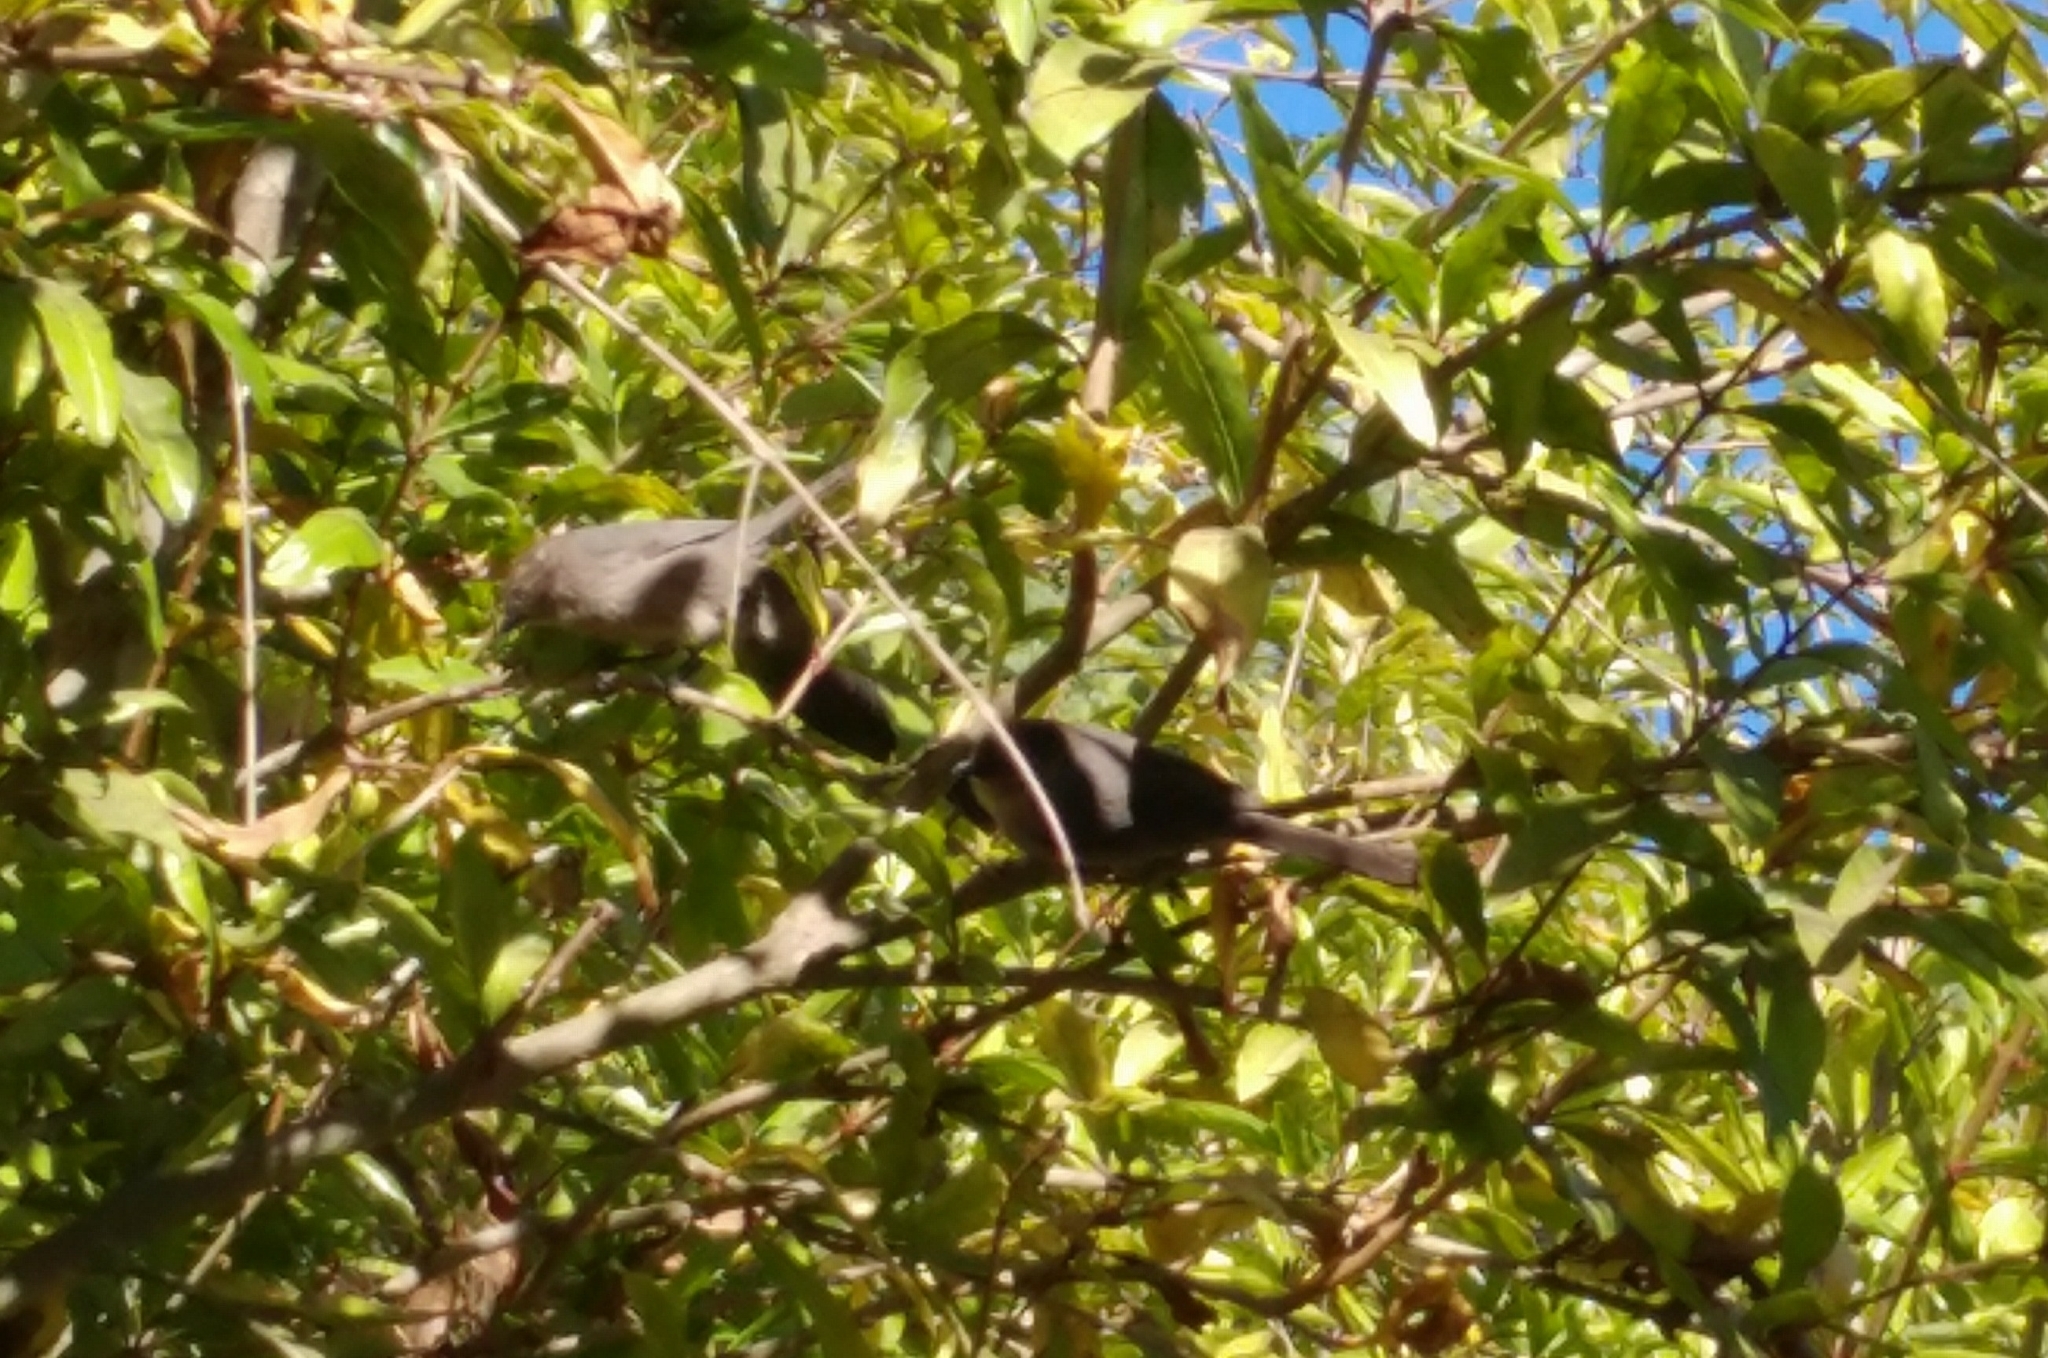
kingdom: Animalia
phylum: Chordata
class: Aves
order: Passeriformes
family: Aegithalidae
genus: Psaltriparus
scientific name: Psaltriparus minimus
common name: American bushtit
